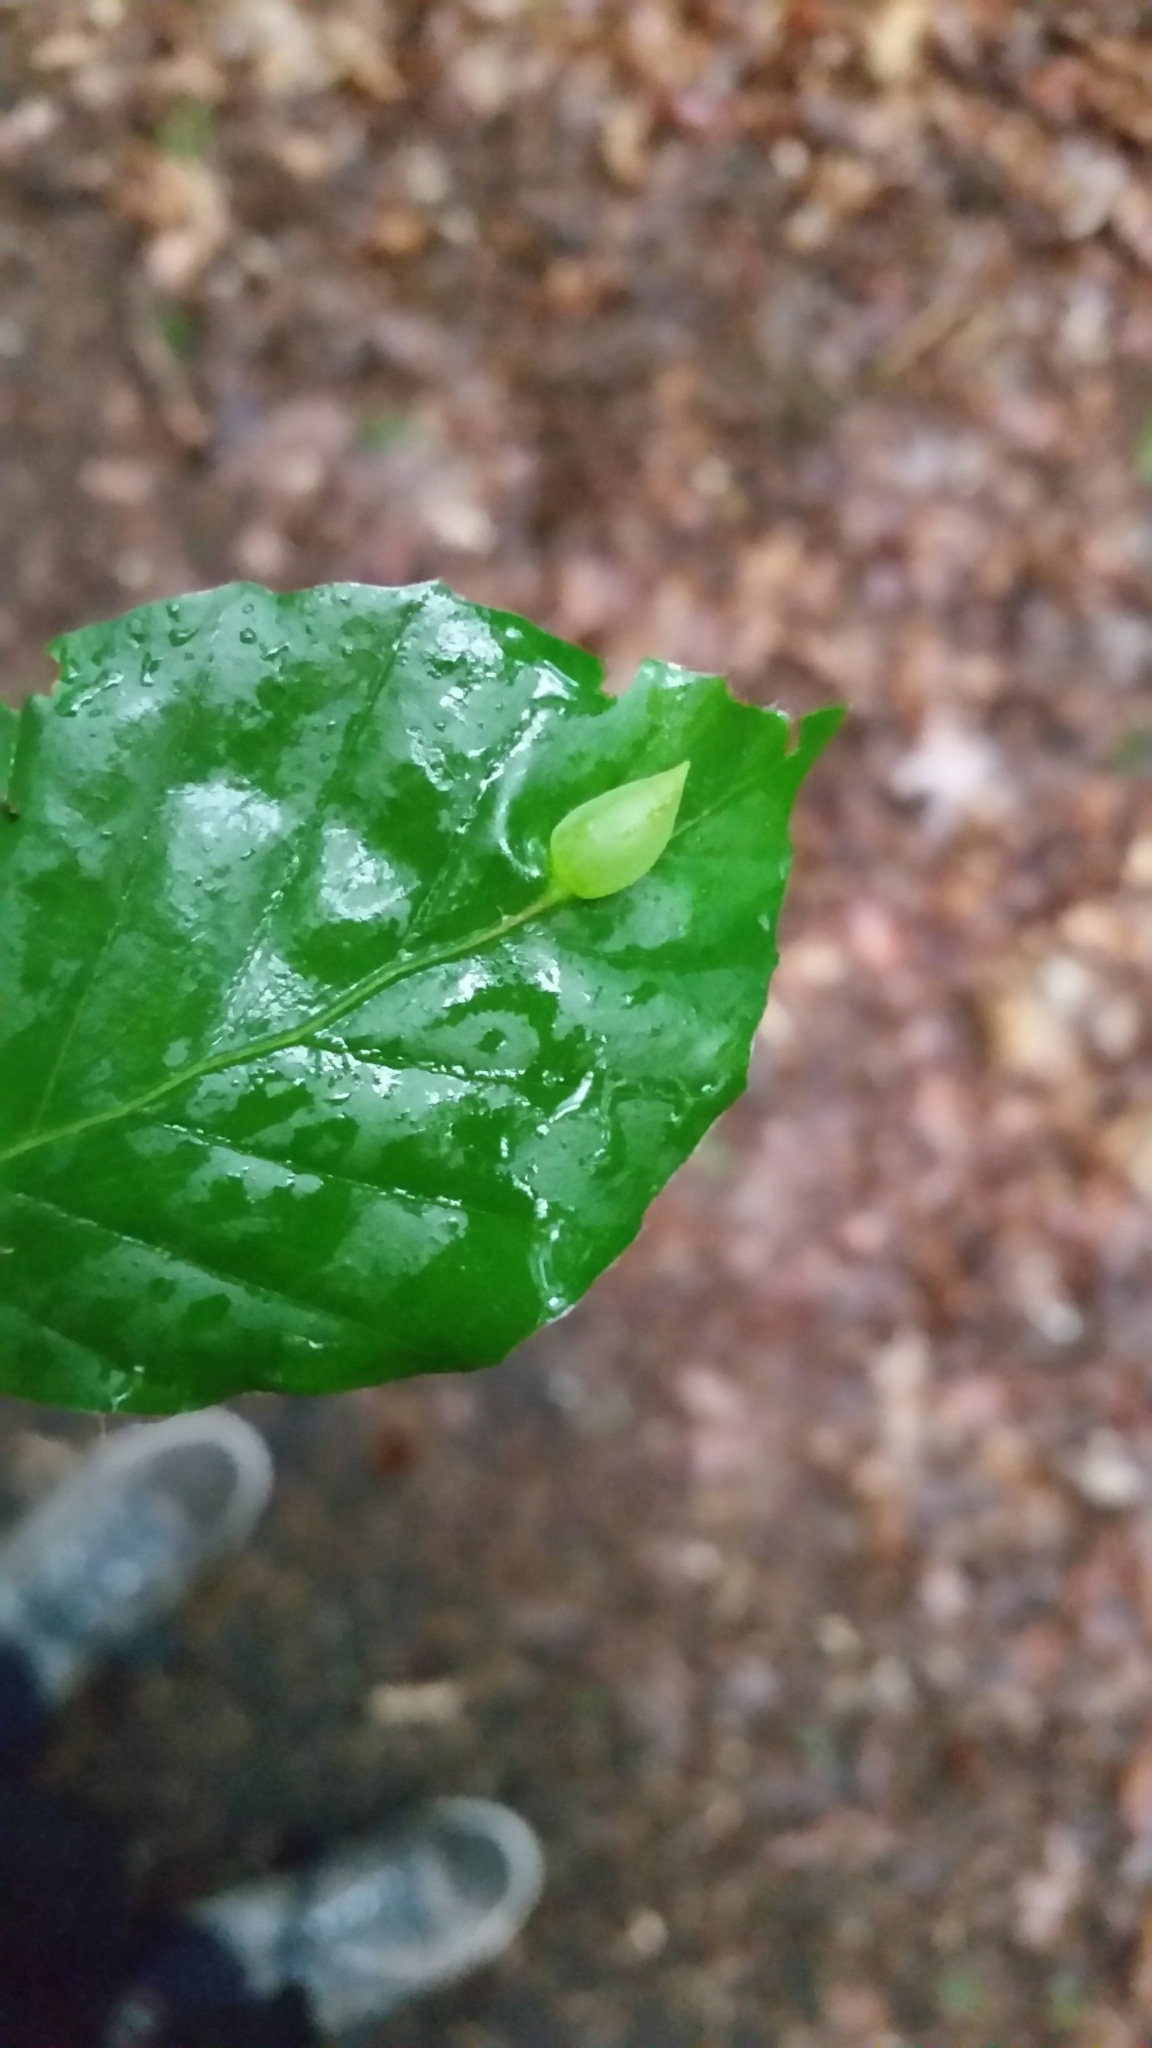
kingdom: Animalia
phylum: Arthropoda
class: Insecta
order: Diptera
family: Cecidomyiidae
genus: Mikiola
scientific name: Mikiola fagi
